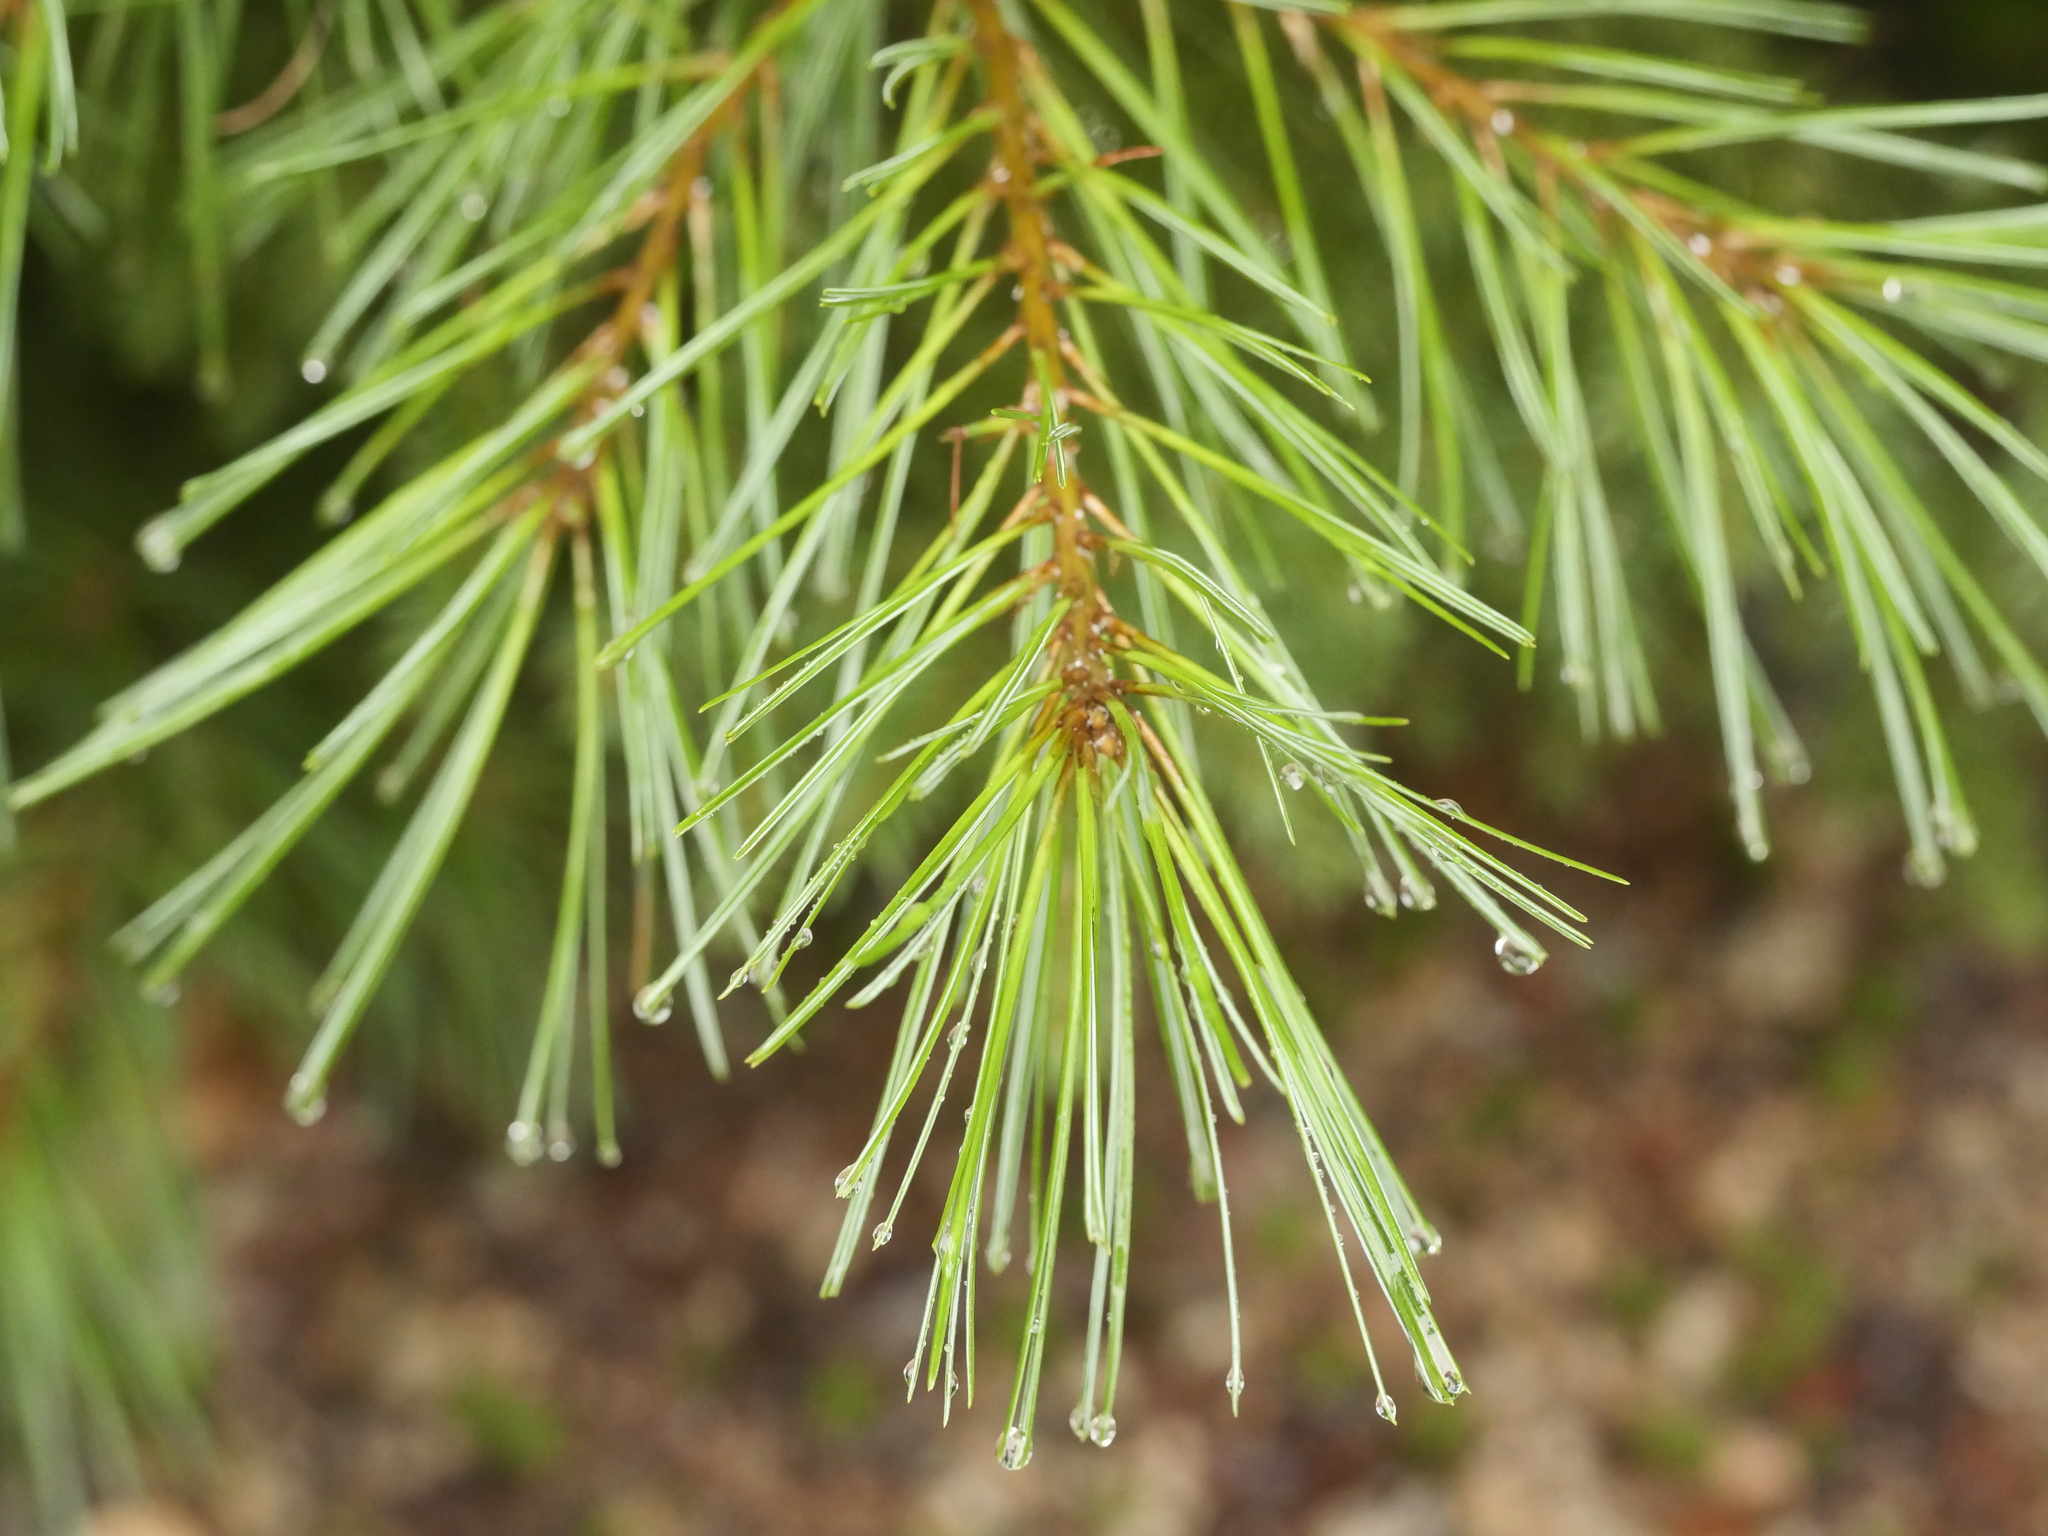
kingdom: Plantae
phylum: Tracheophyta
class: Pinopsida
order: Pinales
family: Pinaceae
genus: Pinus
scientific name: Pinus strobus
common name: Weymouth pine
